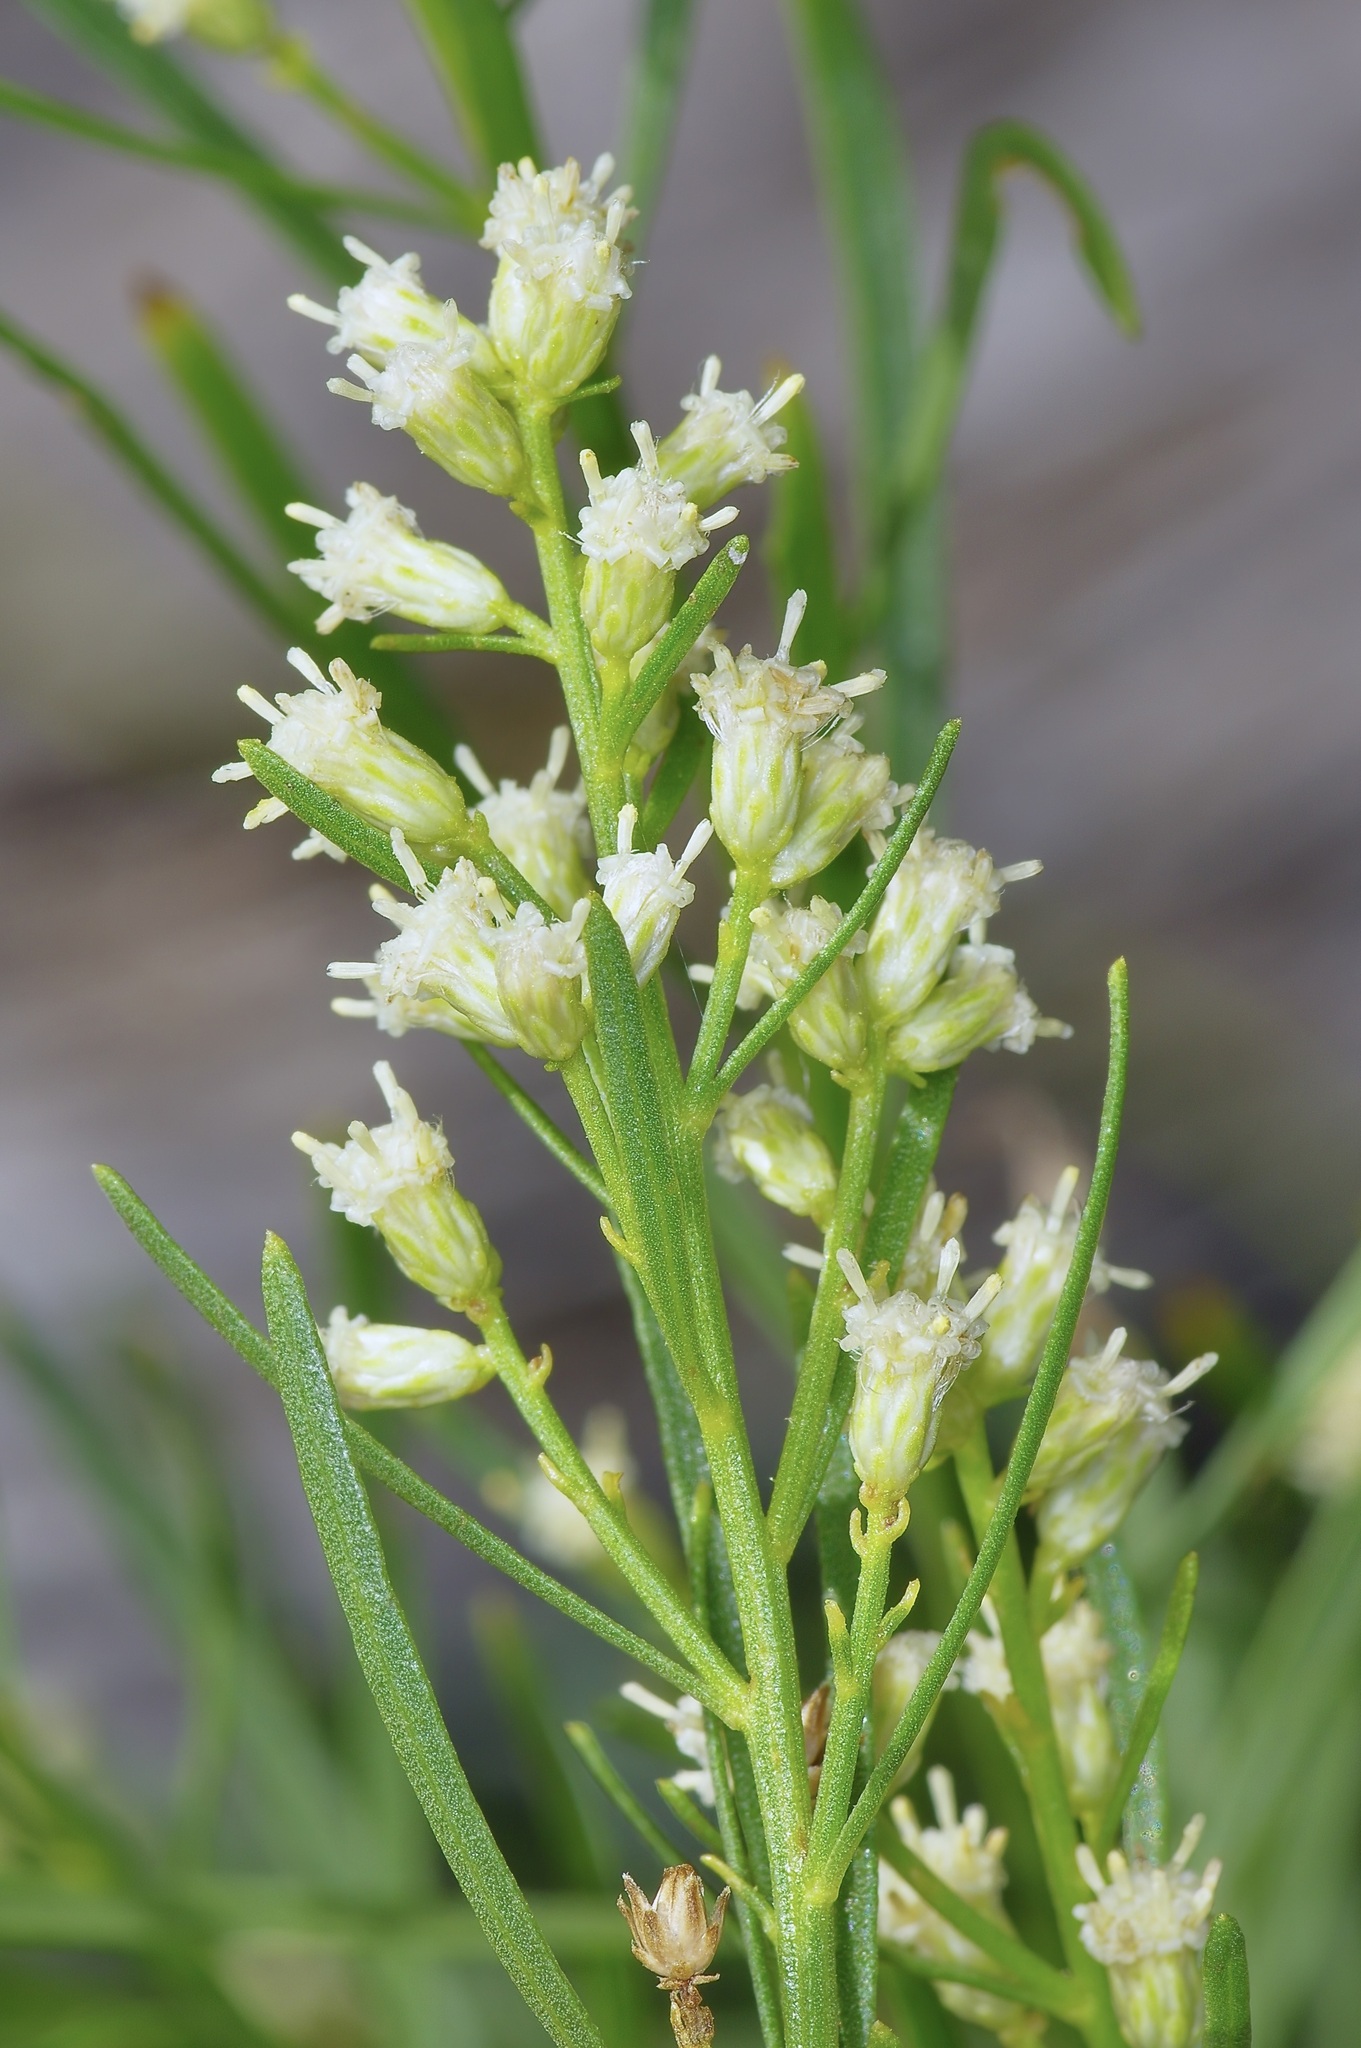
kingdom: Plantae
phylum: Tracheophyta
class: Magnoliopsida
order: Asterales
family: Asteraceae
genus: Baccharis
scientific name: Baccharis neglecta
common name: Roosevelt-weed
